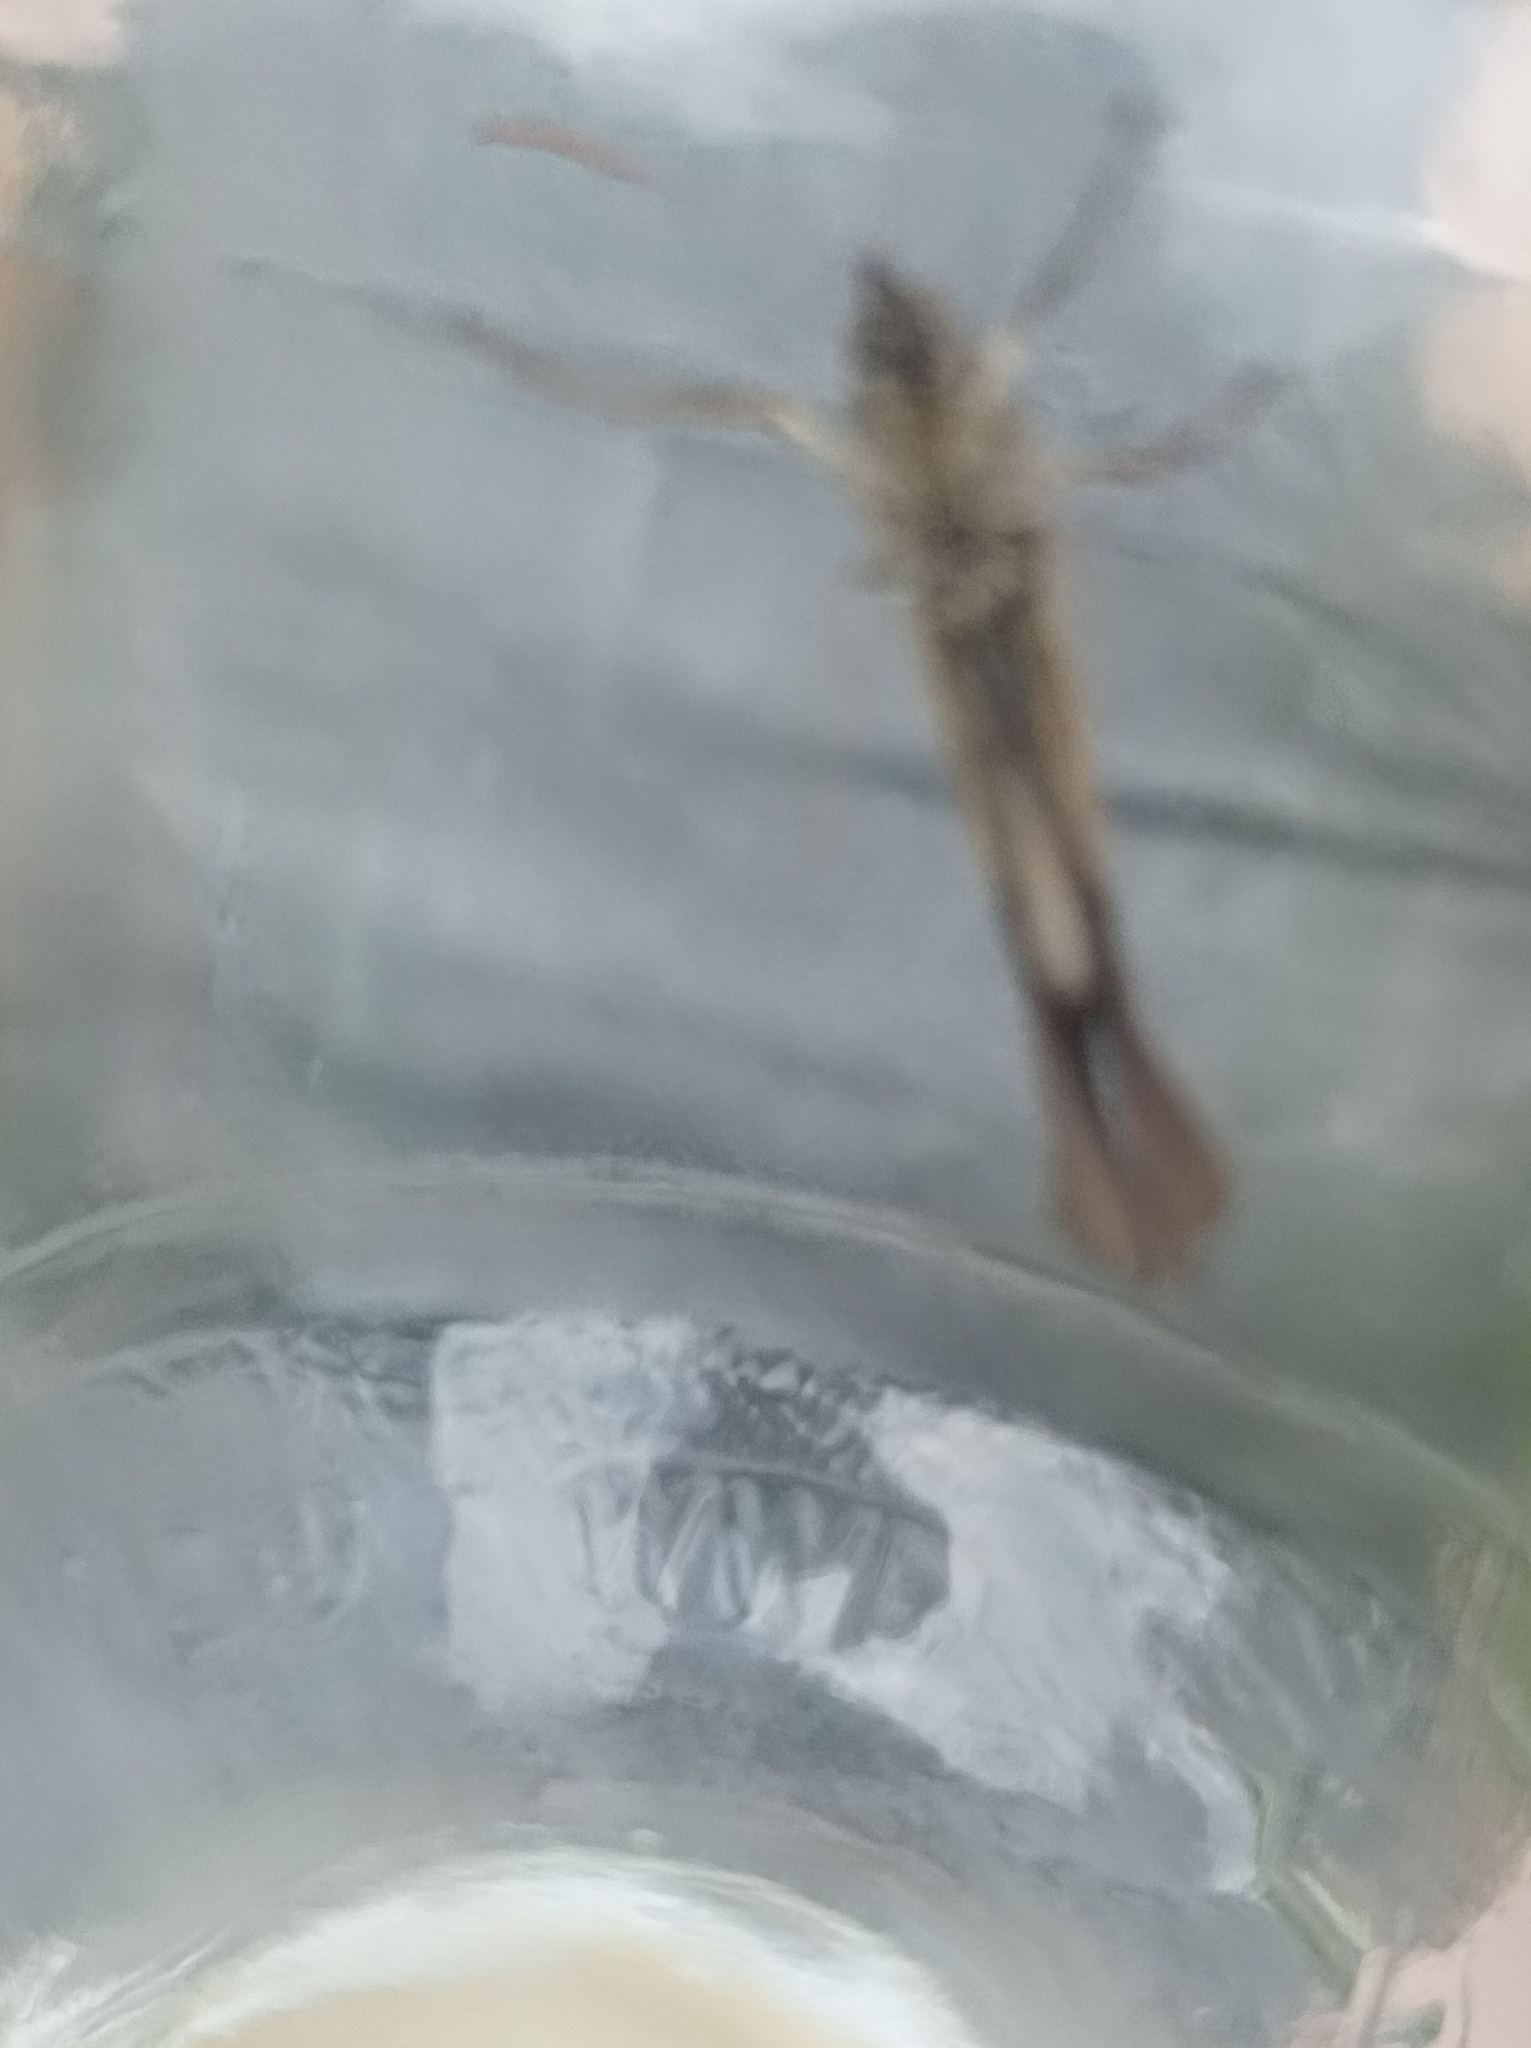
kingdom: Animalia
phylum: Arthropoda
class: Insecta
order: Lepidoptera
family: Nymphalidae
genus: Maniola
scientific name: Maniola jurtina
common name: Meadow brown
